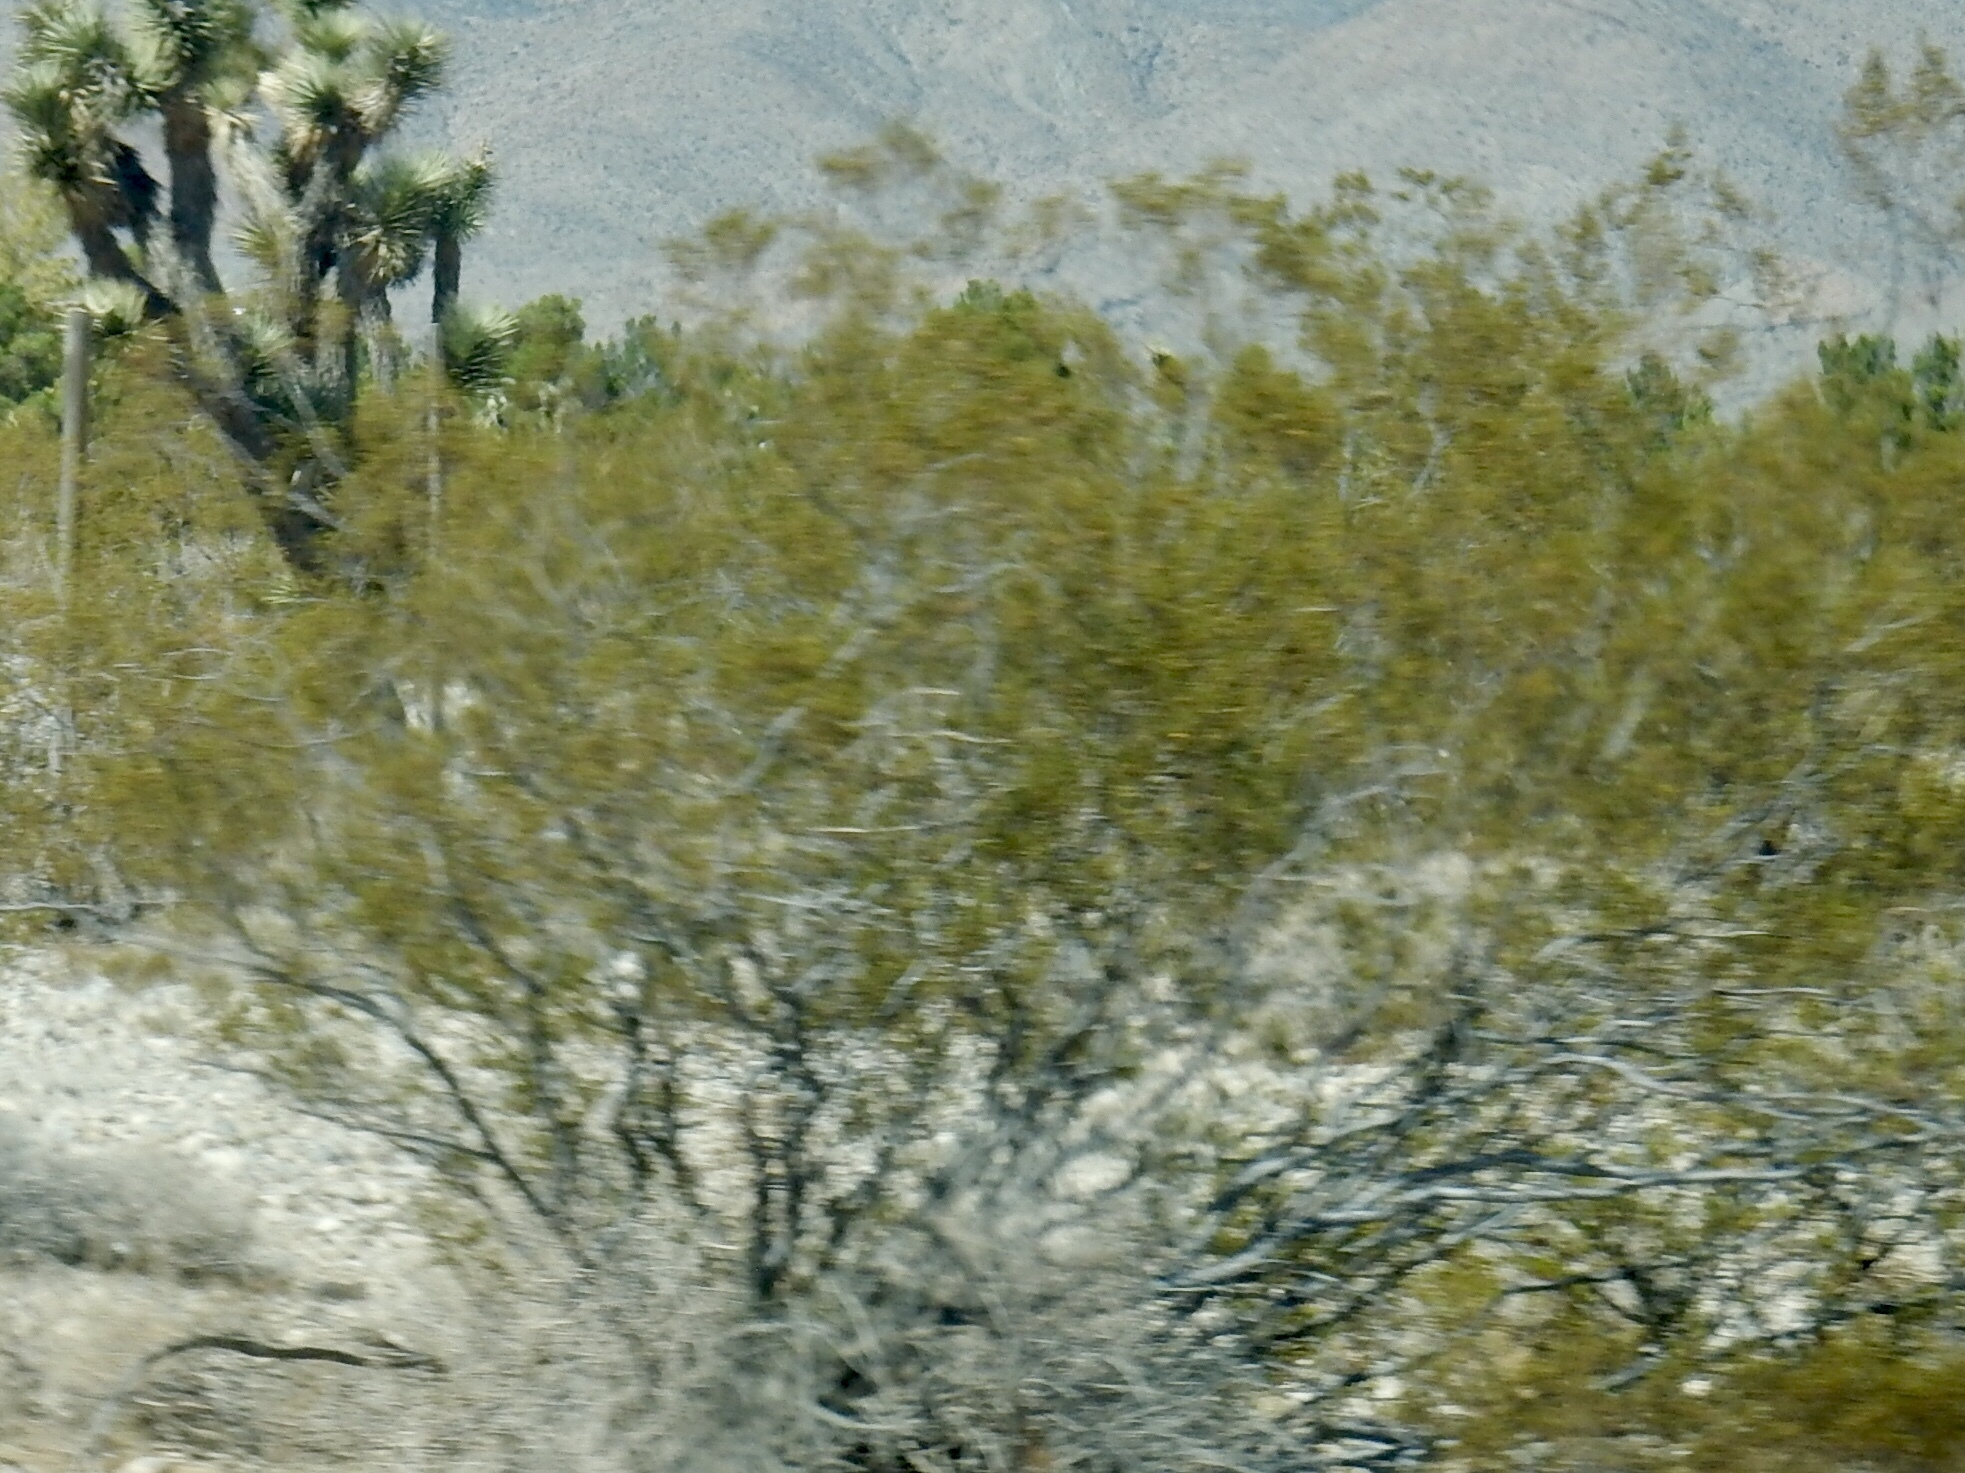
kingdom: Plantae
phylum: Tracheophyta
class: Magnoliopsida
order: Zygophyllales
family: Zygophyllaceae
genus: Larrea
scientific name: Larrea tridentata
